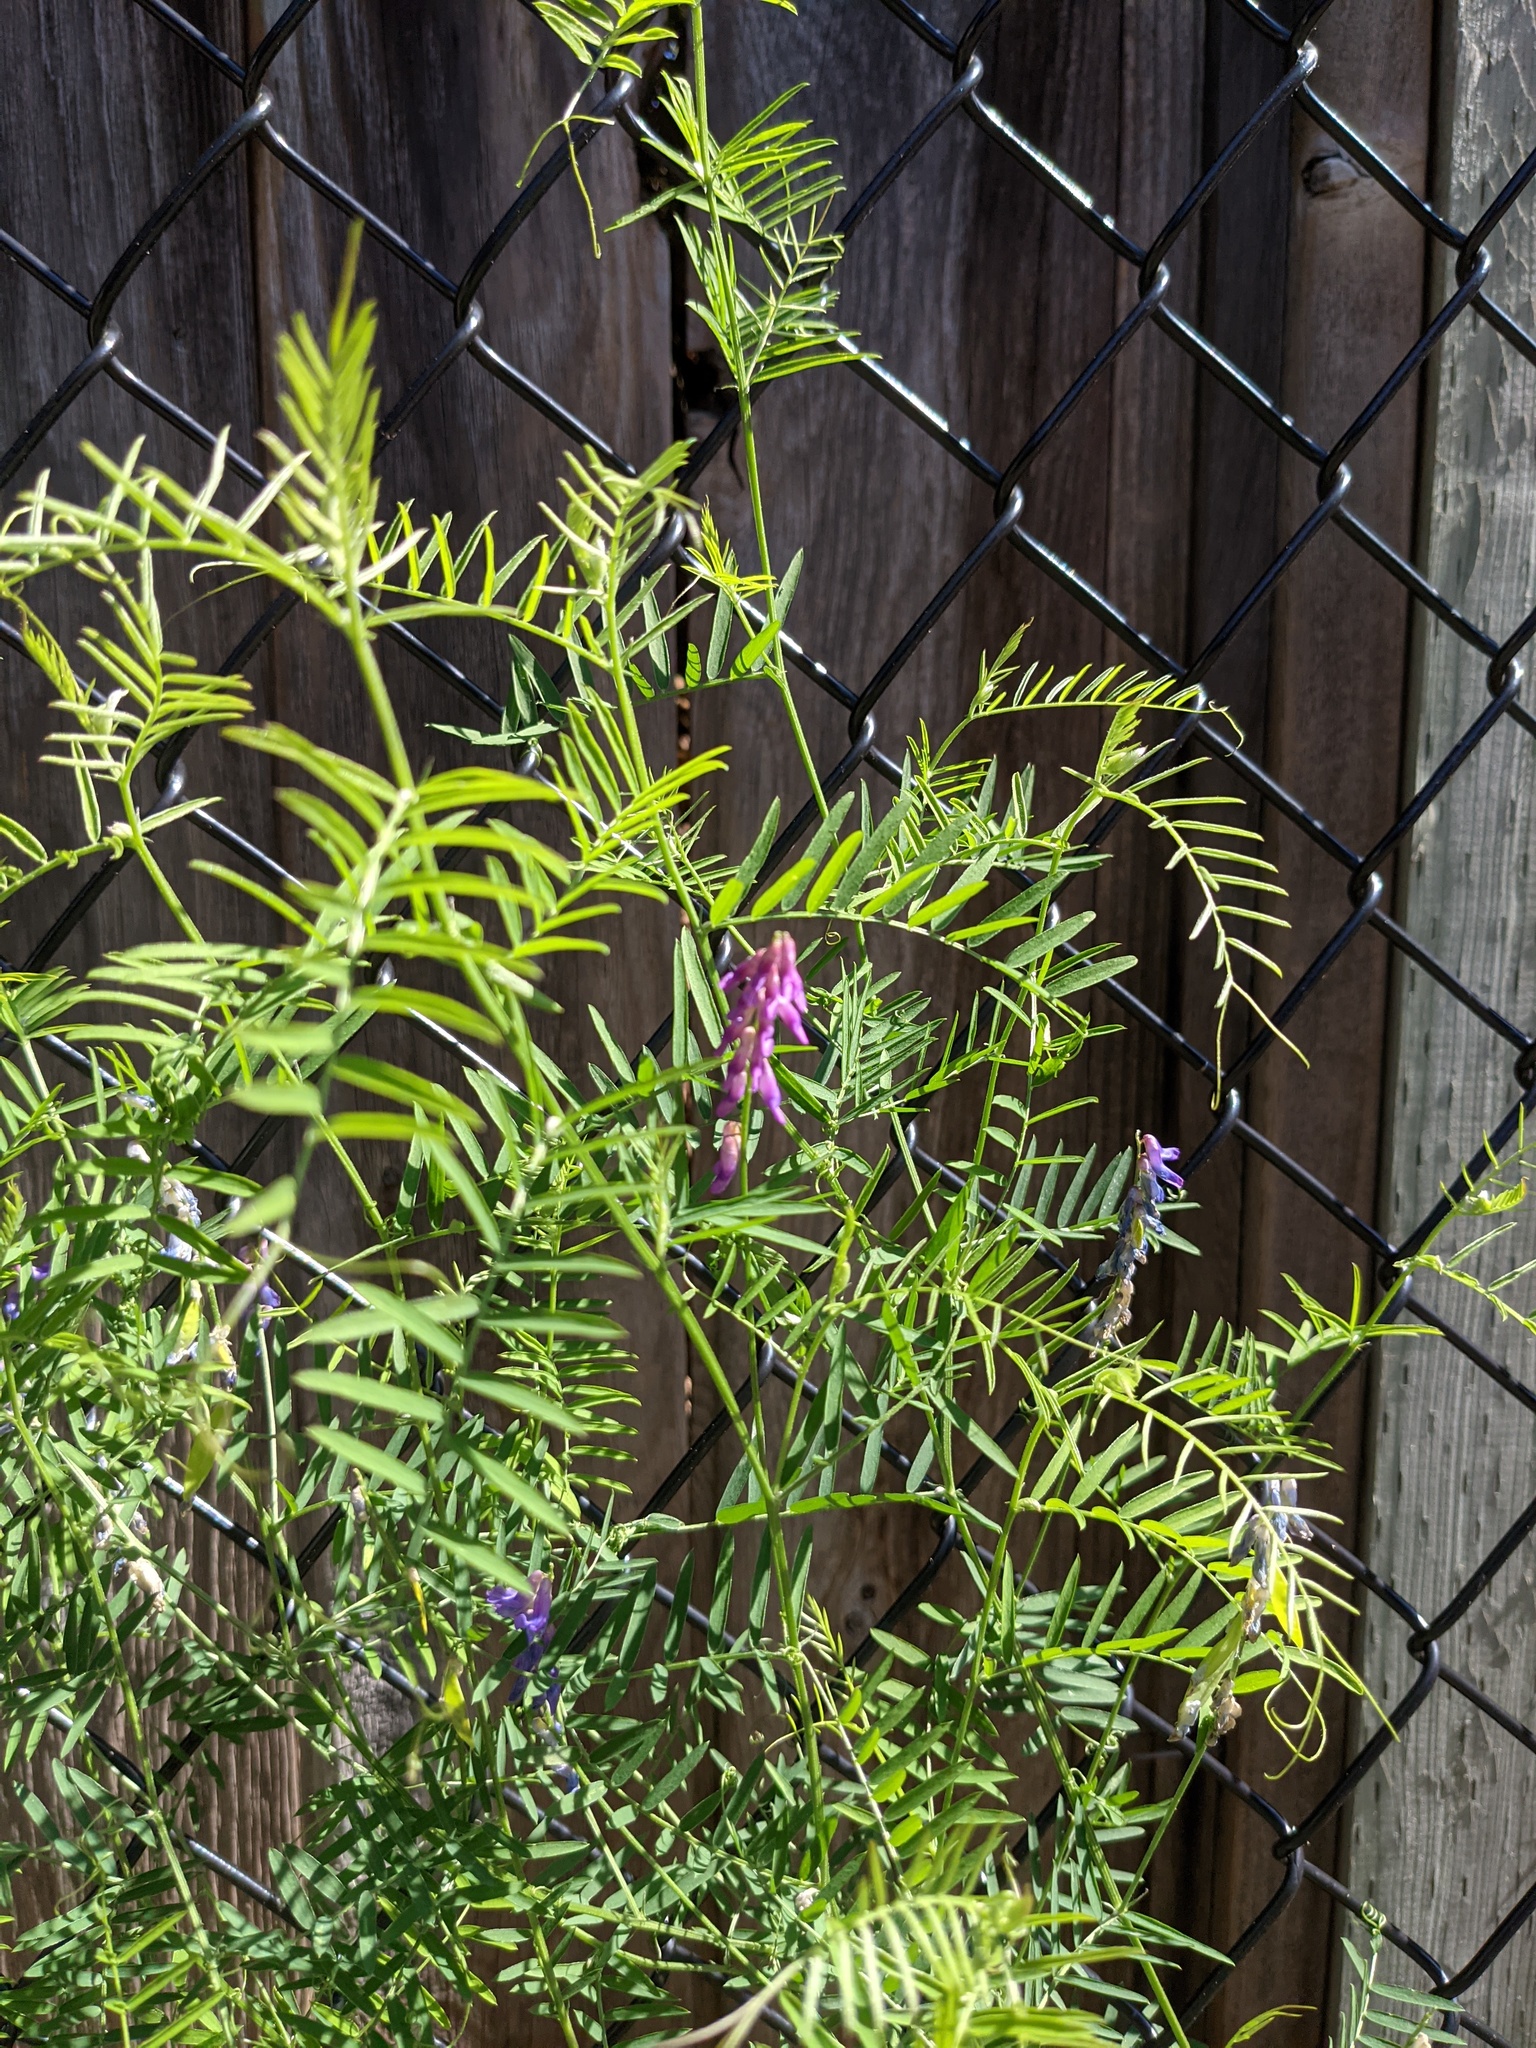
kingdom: Plantae
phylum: Tracheophyta
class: Magnoliopsida
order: Fabales
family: Fabaceae
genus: Vicia
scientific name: Vicia cracca
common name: Bird vetch
